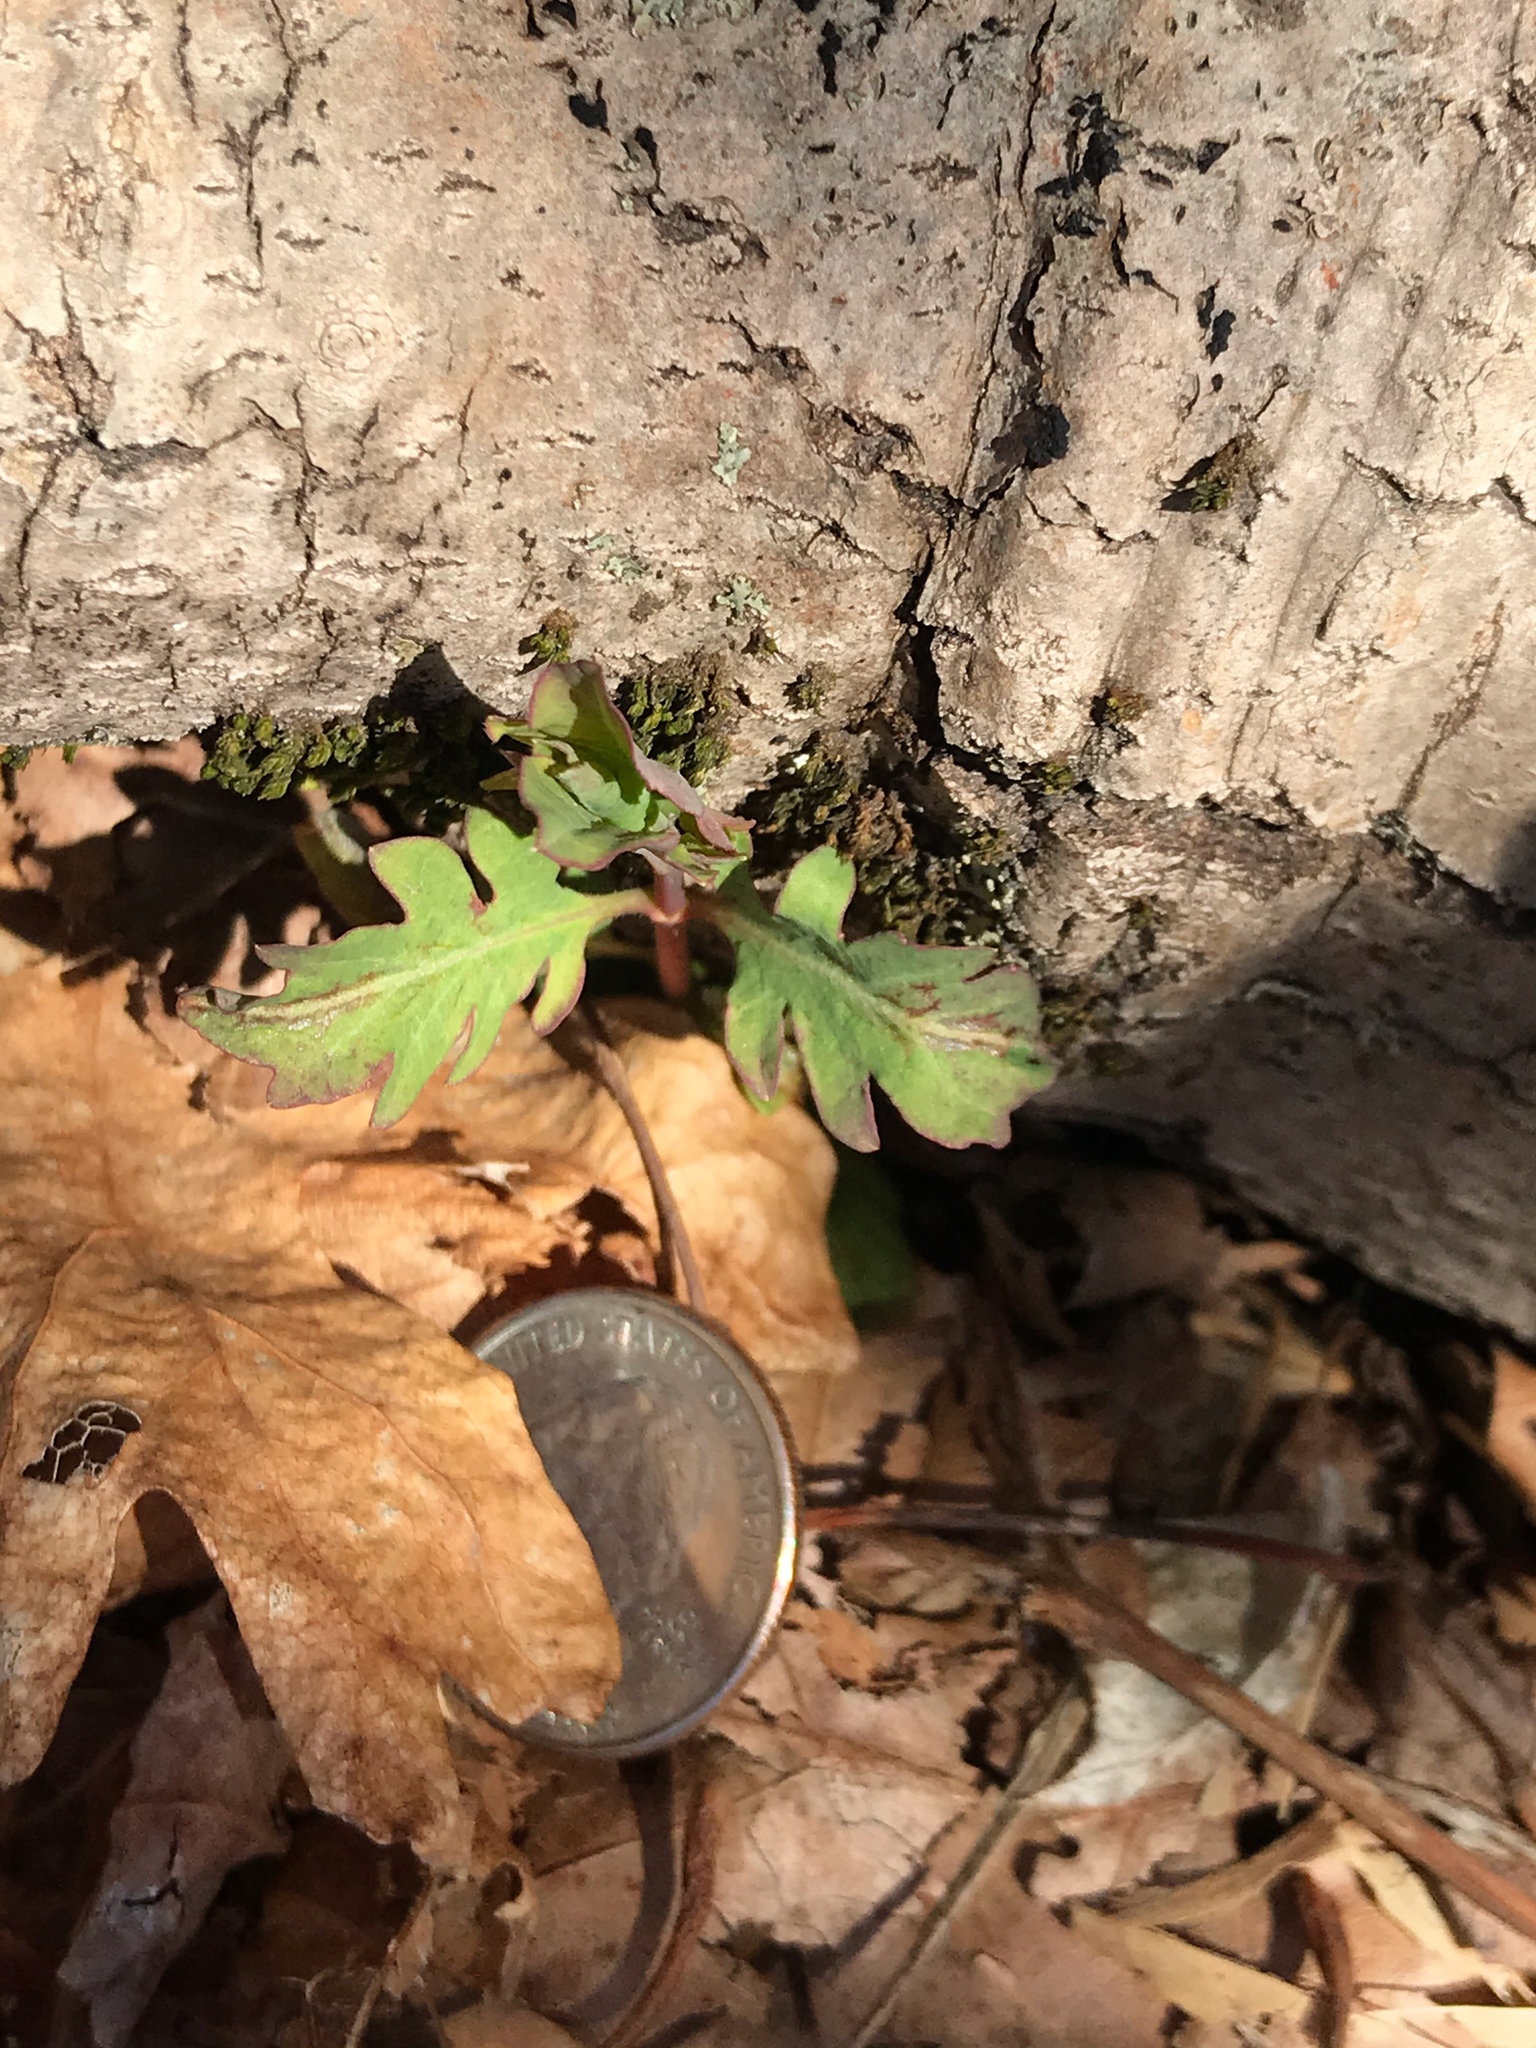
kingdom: Plantae
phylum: Tracheophyta
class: Magnoliopsida
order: Dipsacales
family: Caprifoliaceae
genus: Lonicera
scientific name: Lonicera japonica
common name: Japanese honeysuckle
